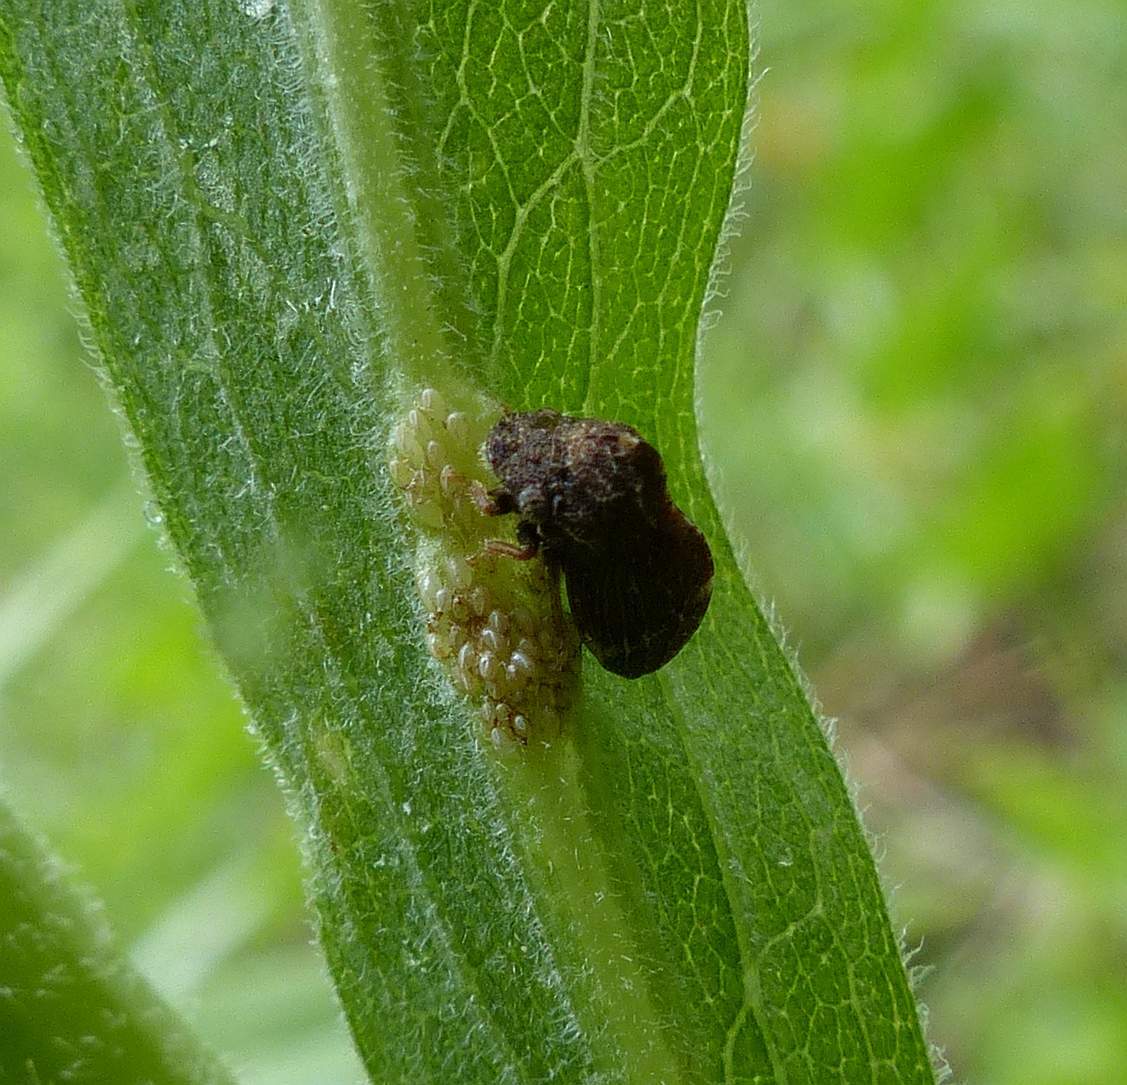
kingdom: Animalia
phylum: Arthropoda
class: Insecta
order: Hemiptera
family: Membracidae
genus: Publilia
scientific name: Publilia concava
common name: Aster treehopper
